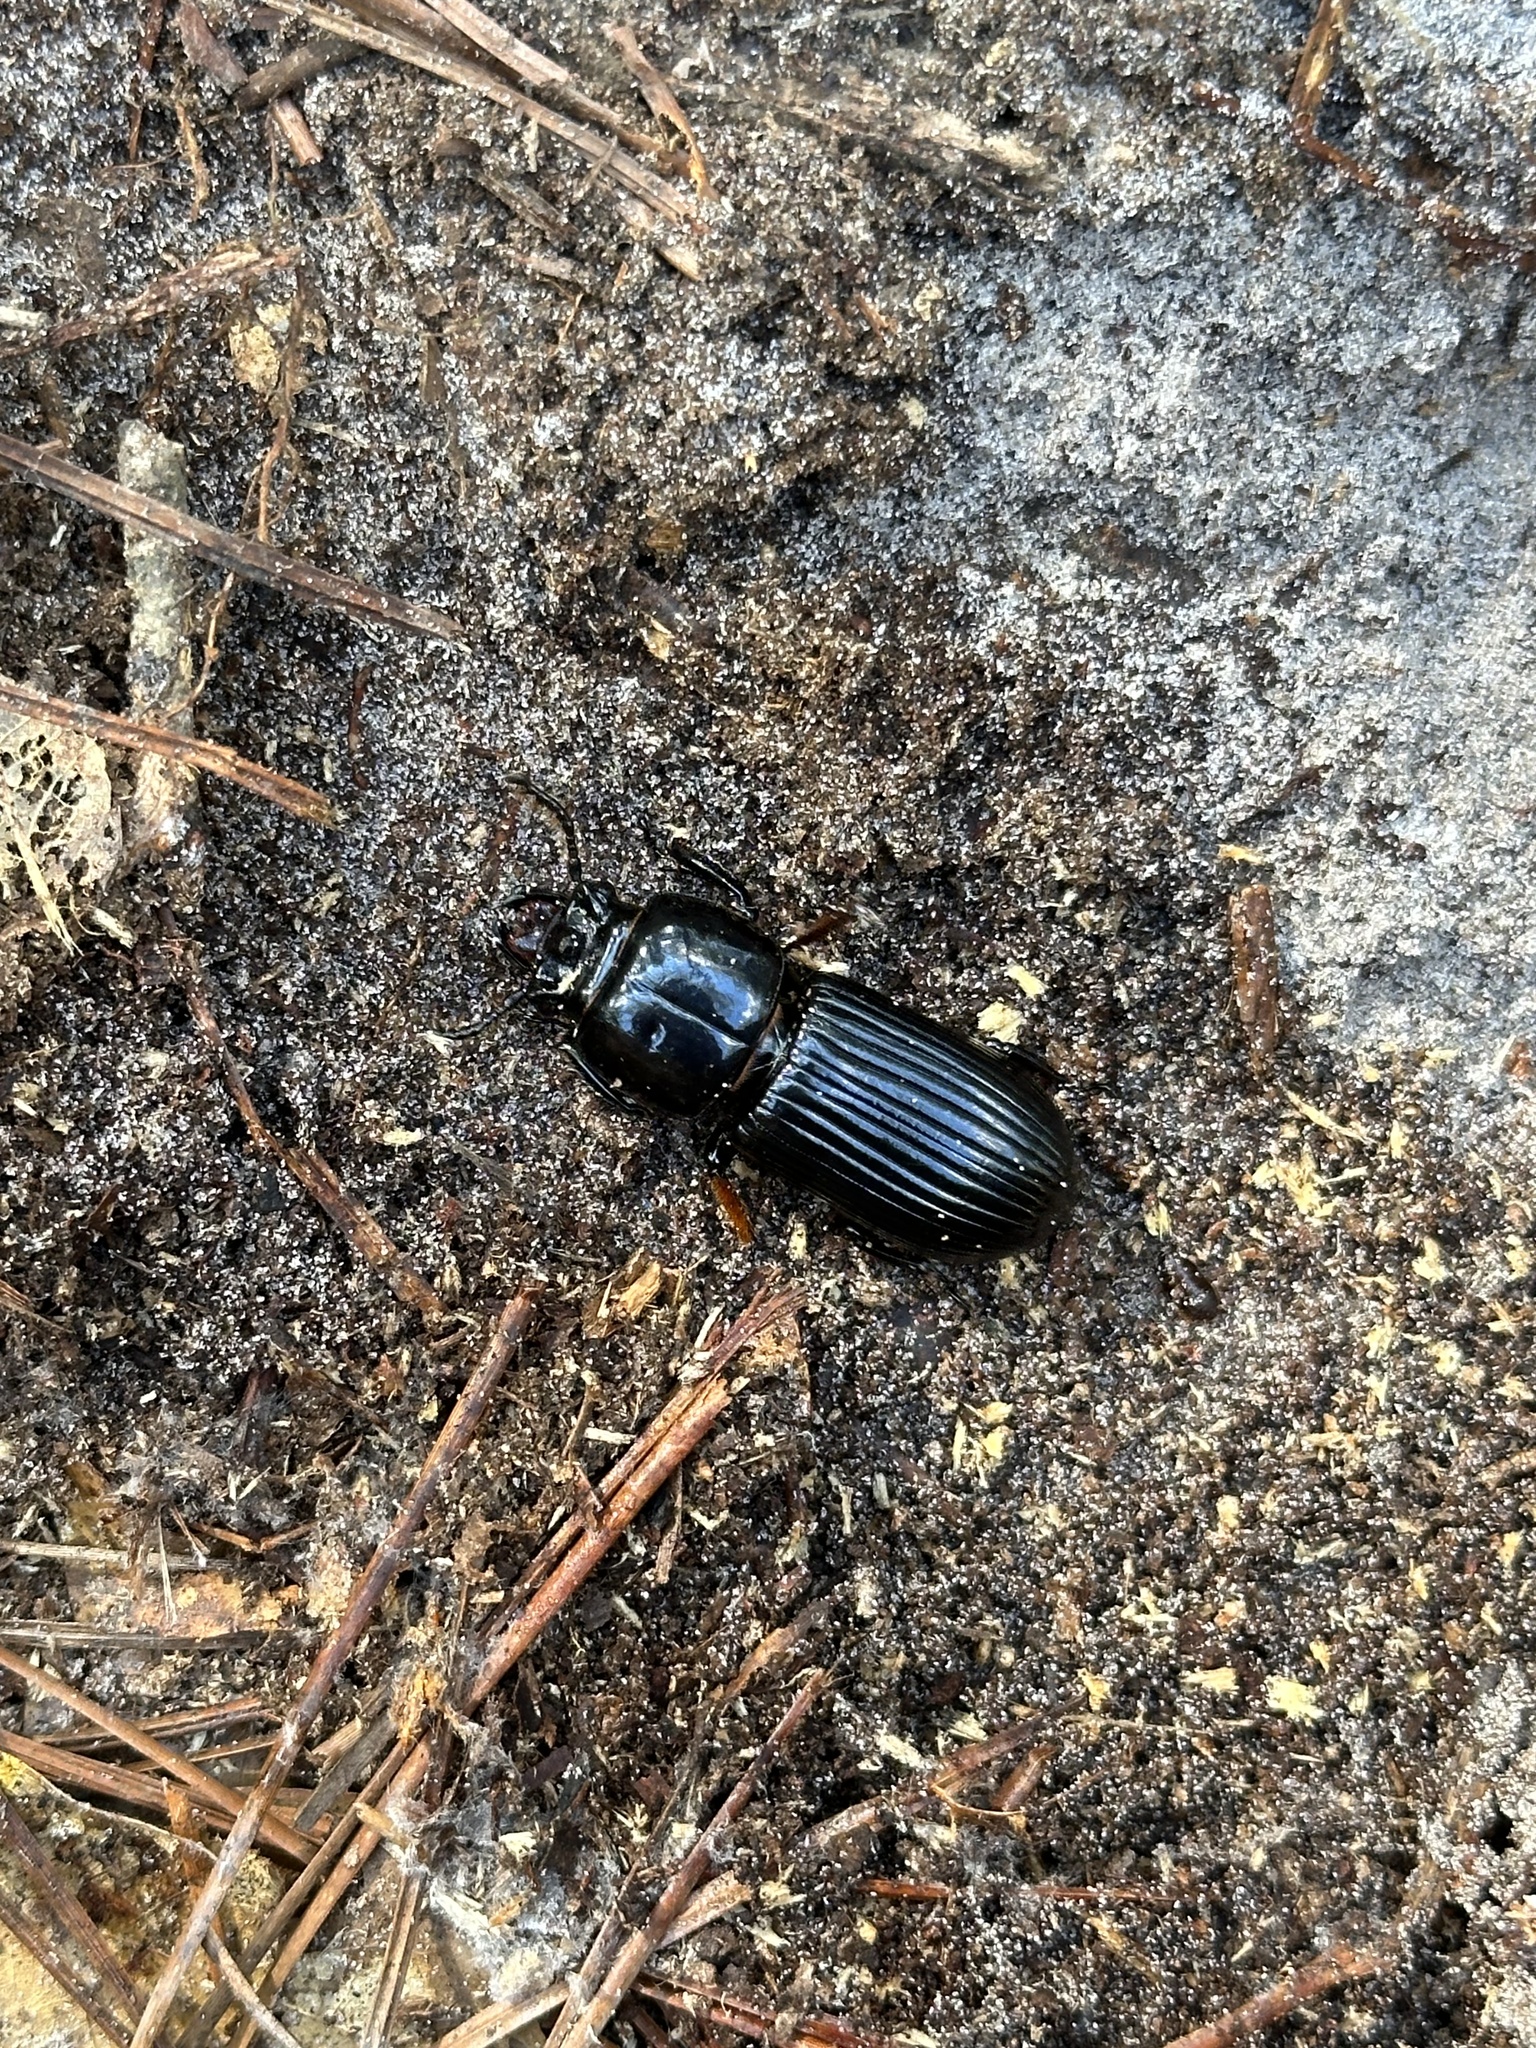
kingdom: Animalia
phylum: Arthropoda
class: Insecta
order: Coleoptera
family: Passalidae
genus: Odontotaenius
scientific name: Odontotaenius disjunctus
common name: Patent leather beetle
